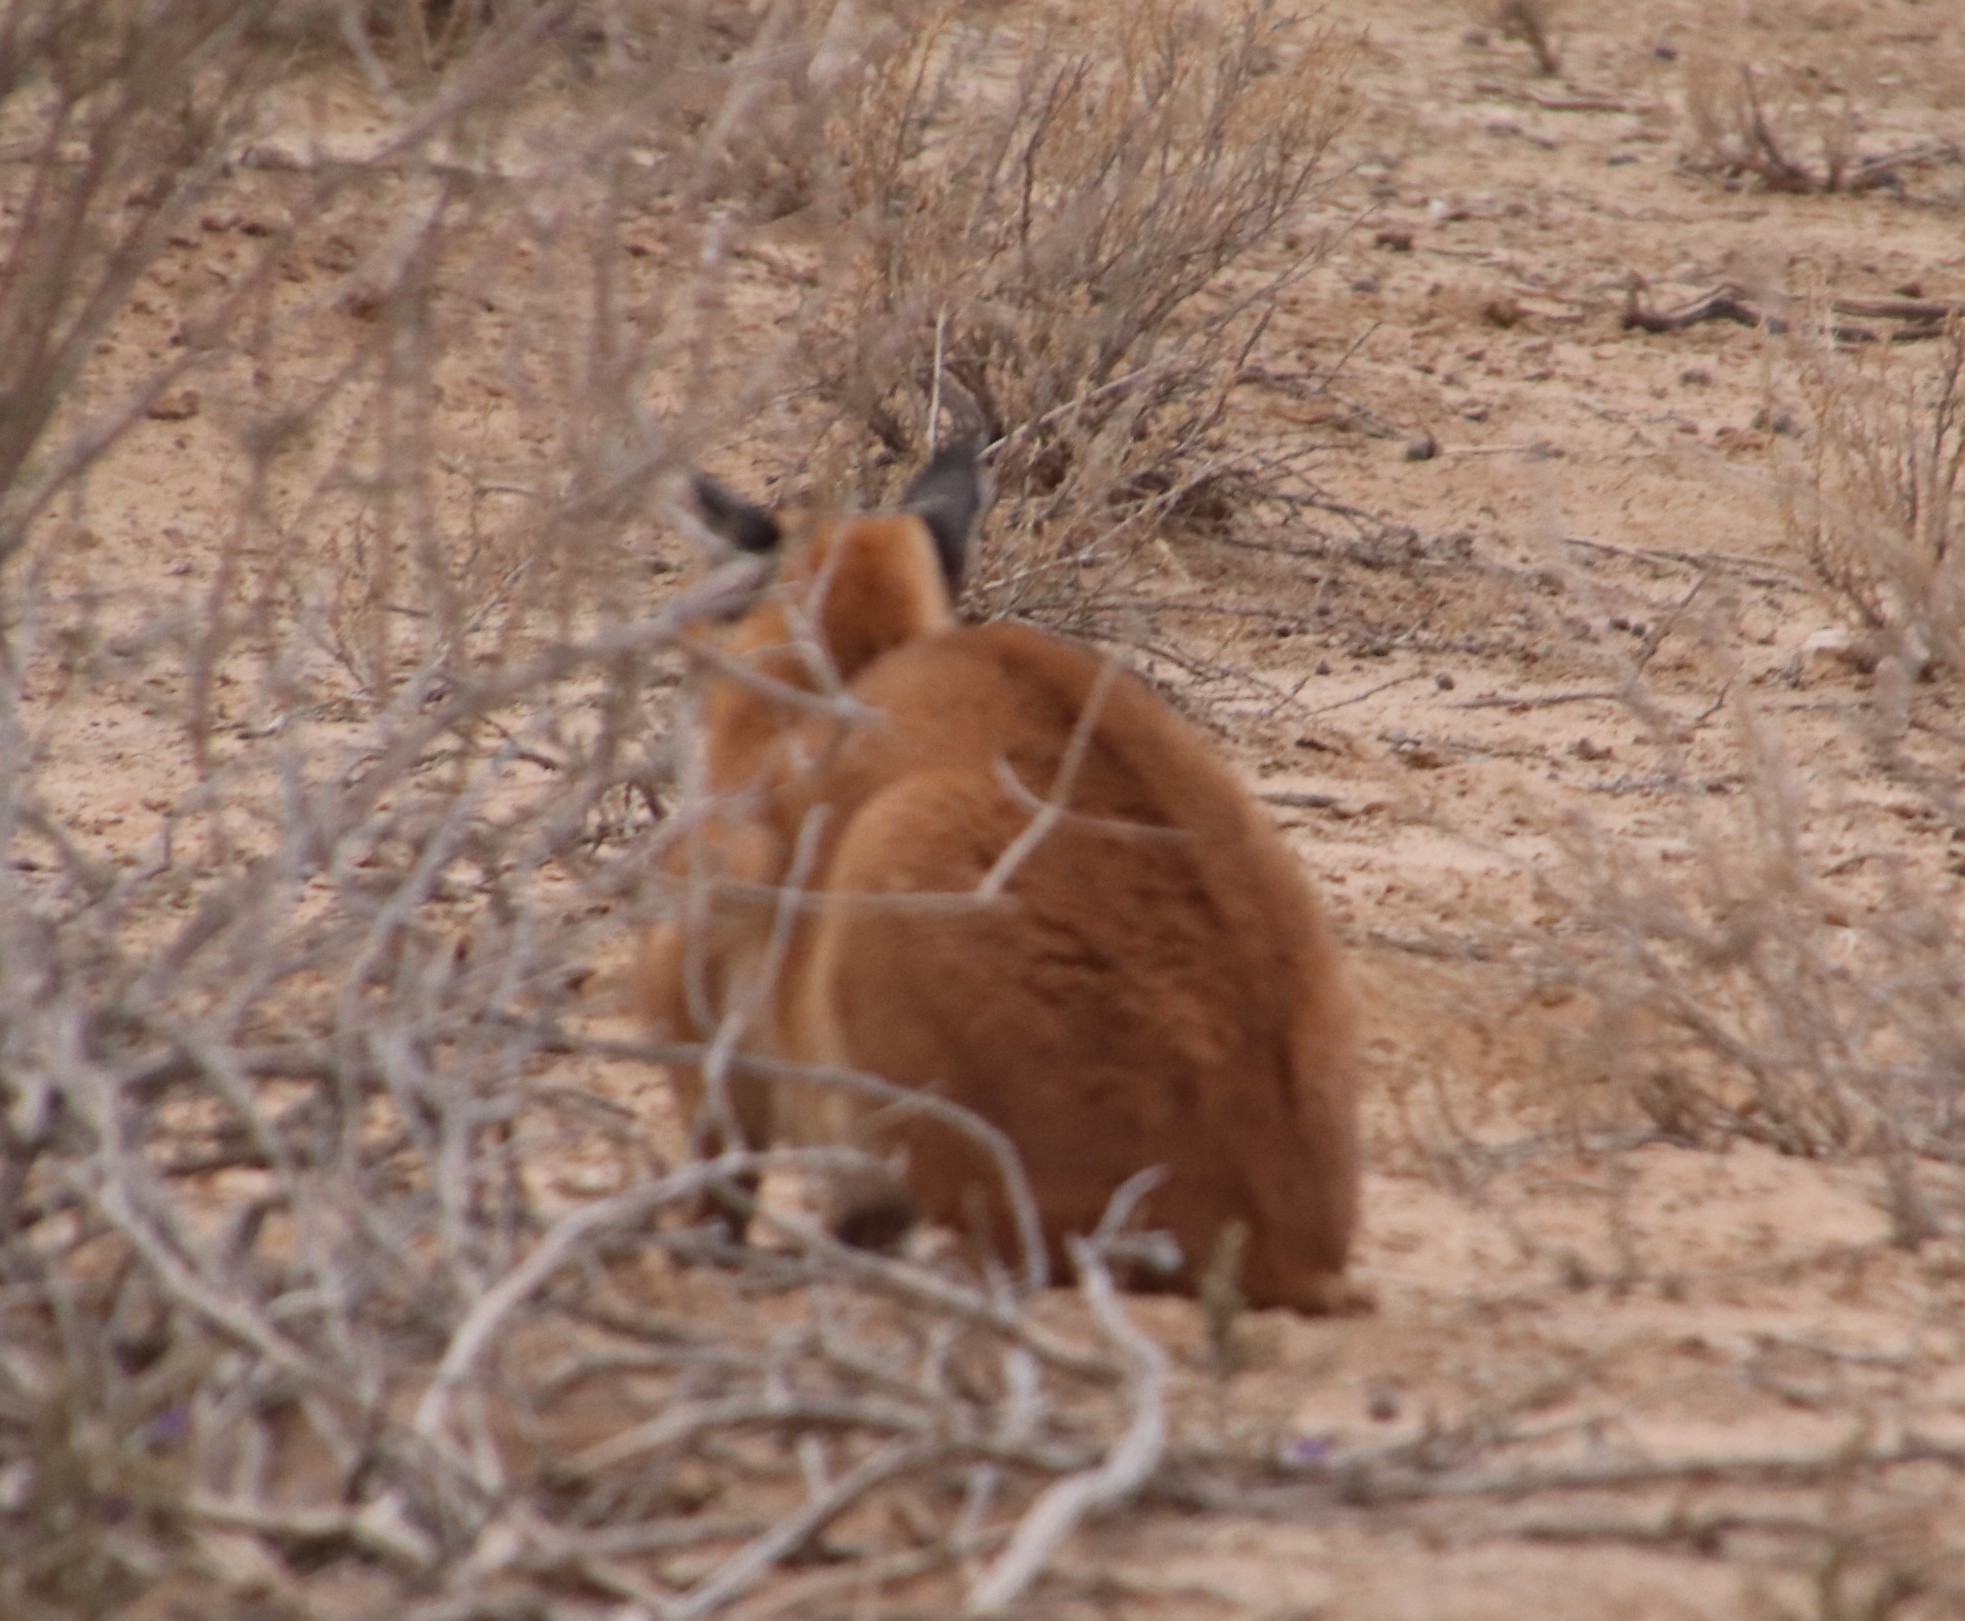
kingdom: Animalia
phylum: Chordata
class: Mammalia
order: Carnivora
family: Felidae
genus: Caracal
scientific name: Caracal caracal
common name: Caracal
